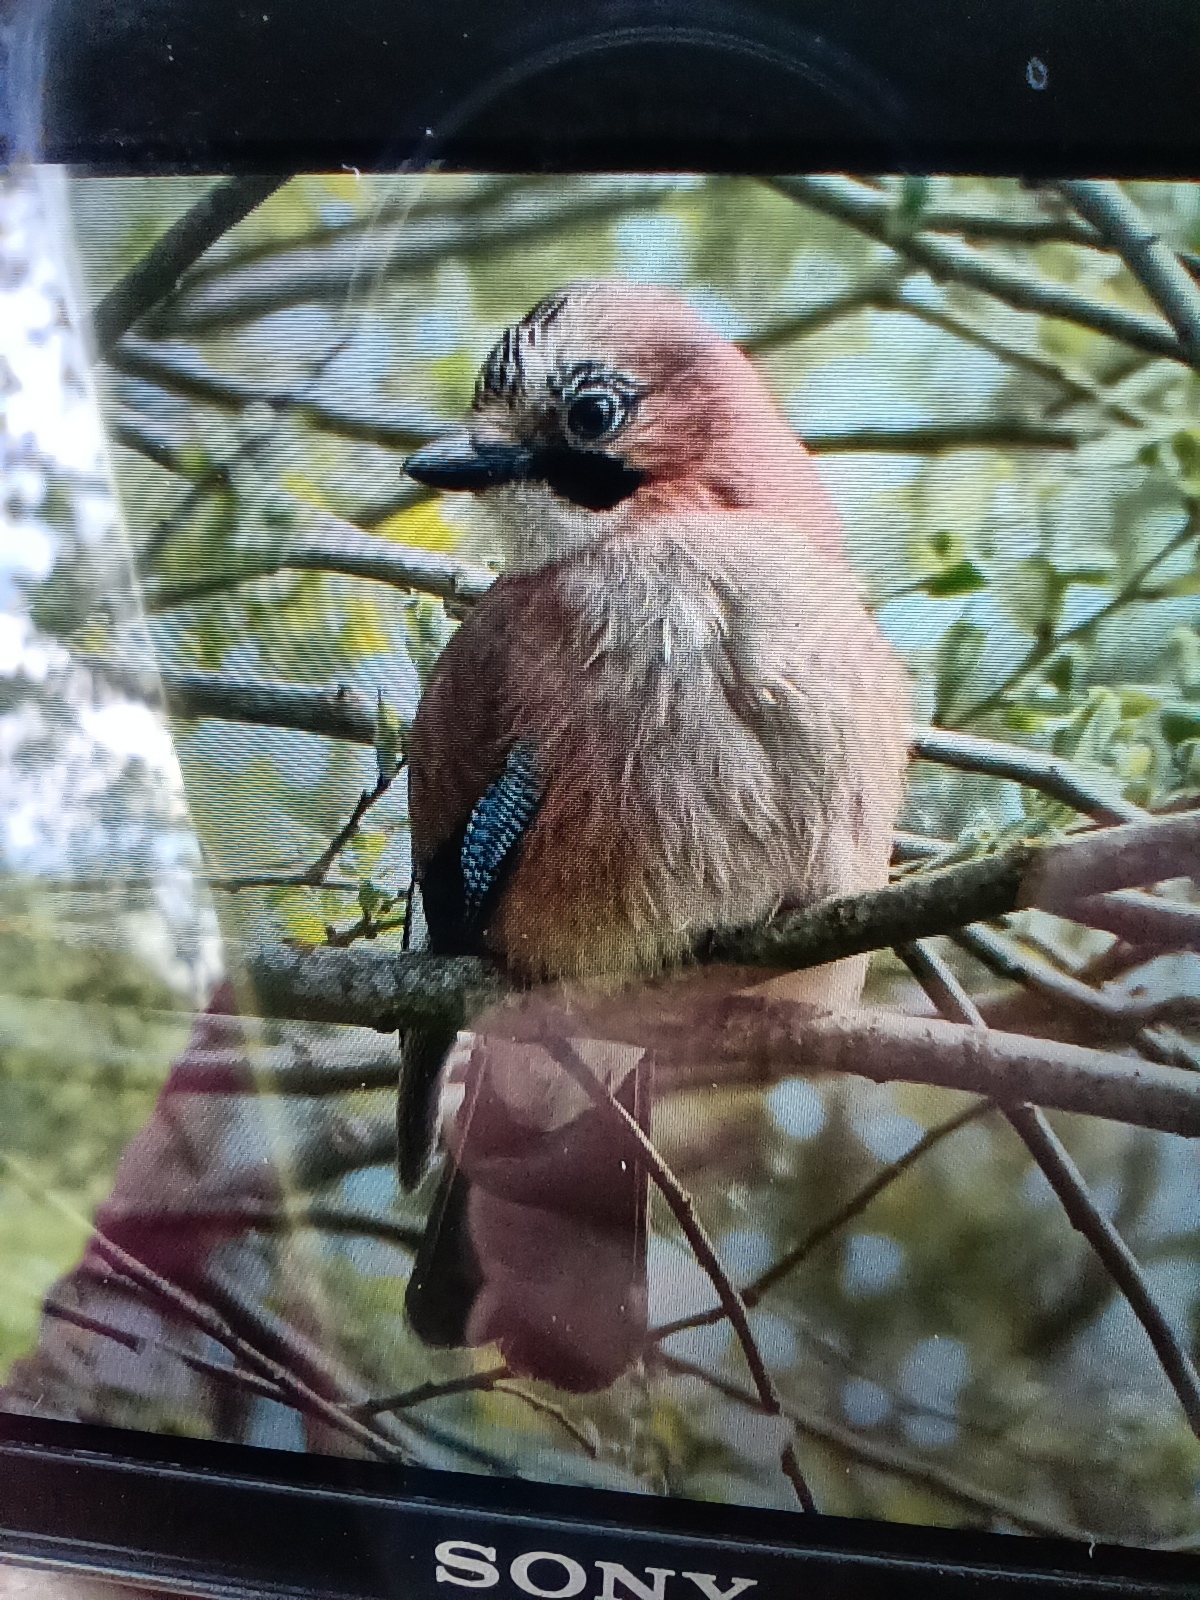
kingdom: Animalia
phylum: Chordata
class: Aves
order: Passeriformes
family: Corvidae
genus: Garrulus
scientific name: Garrulus glandarius
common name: Eurasian jay
